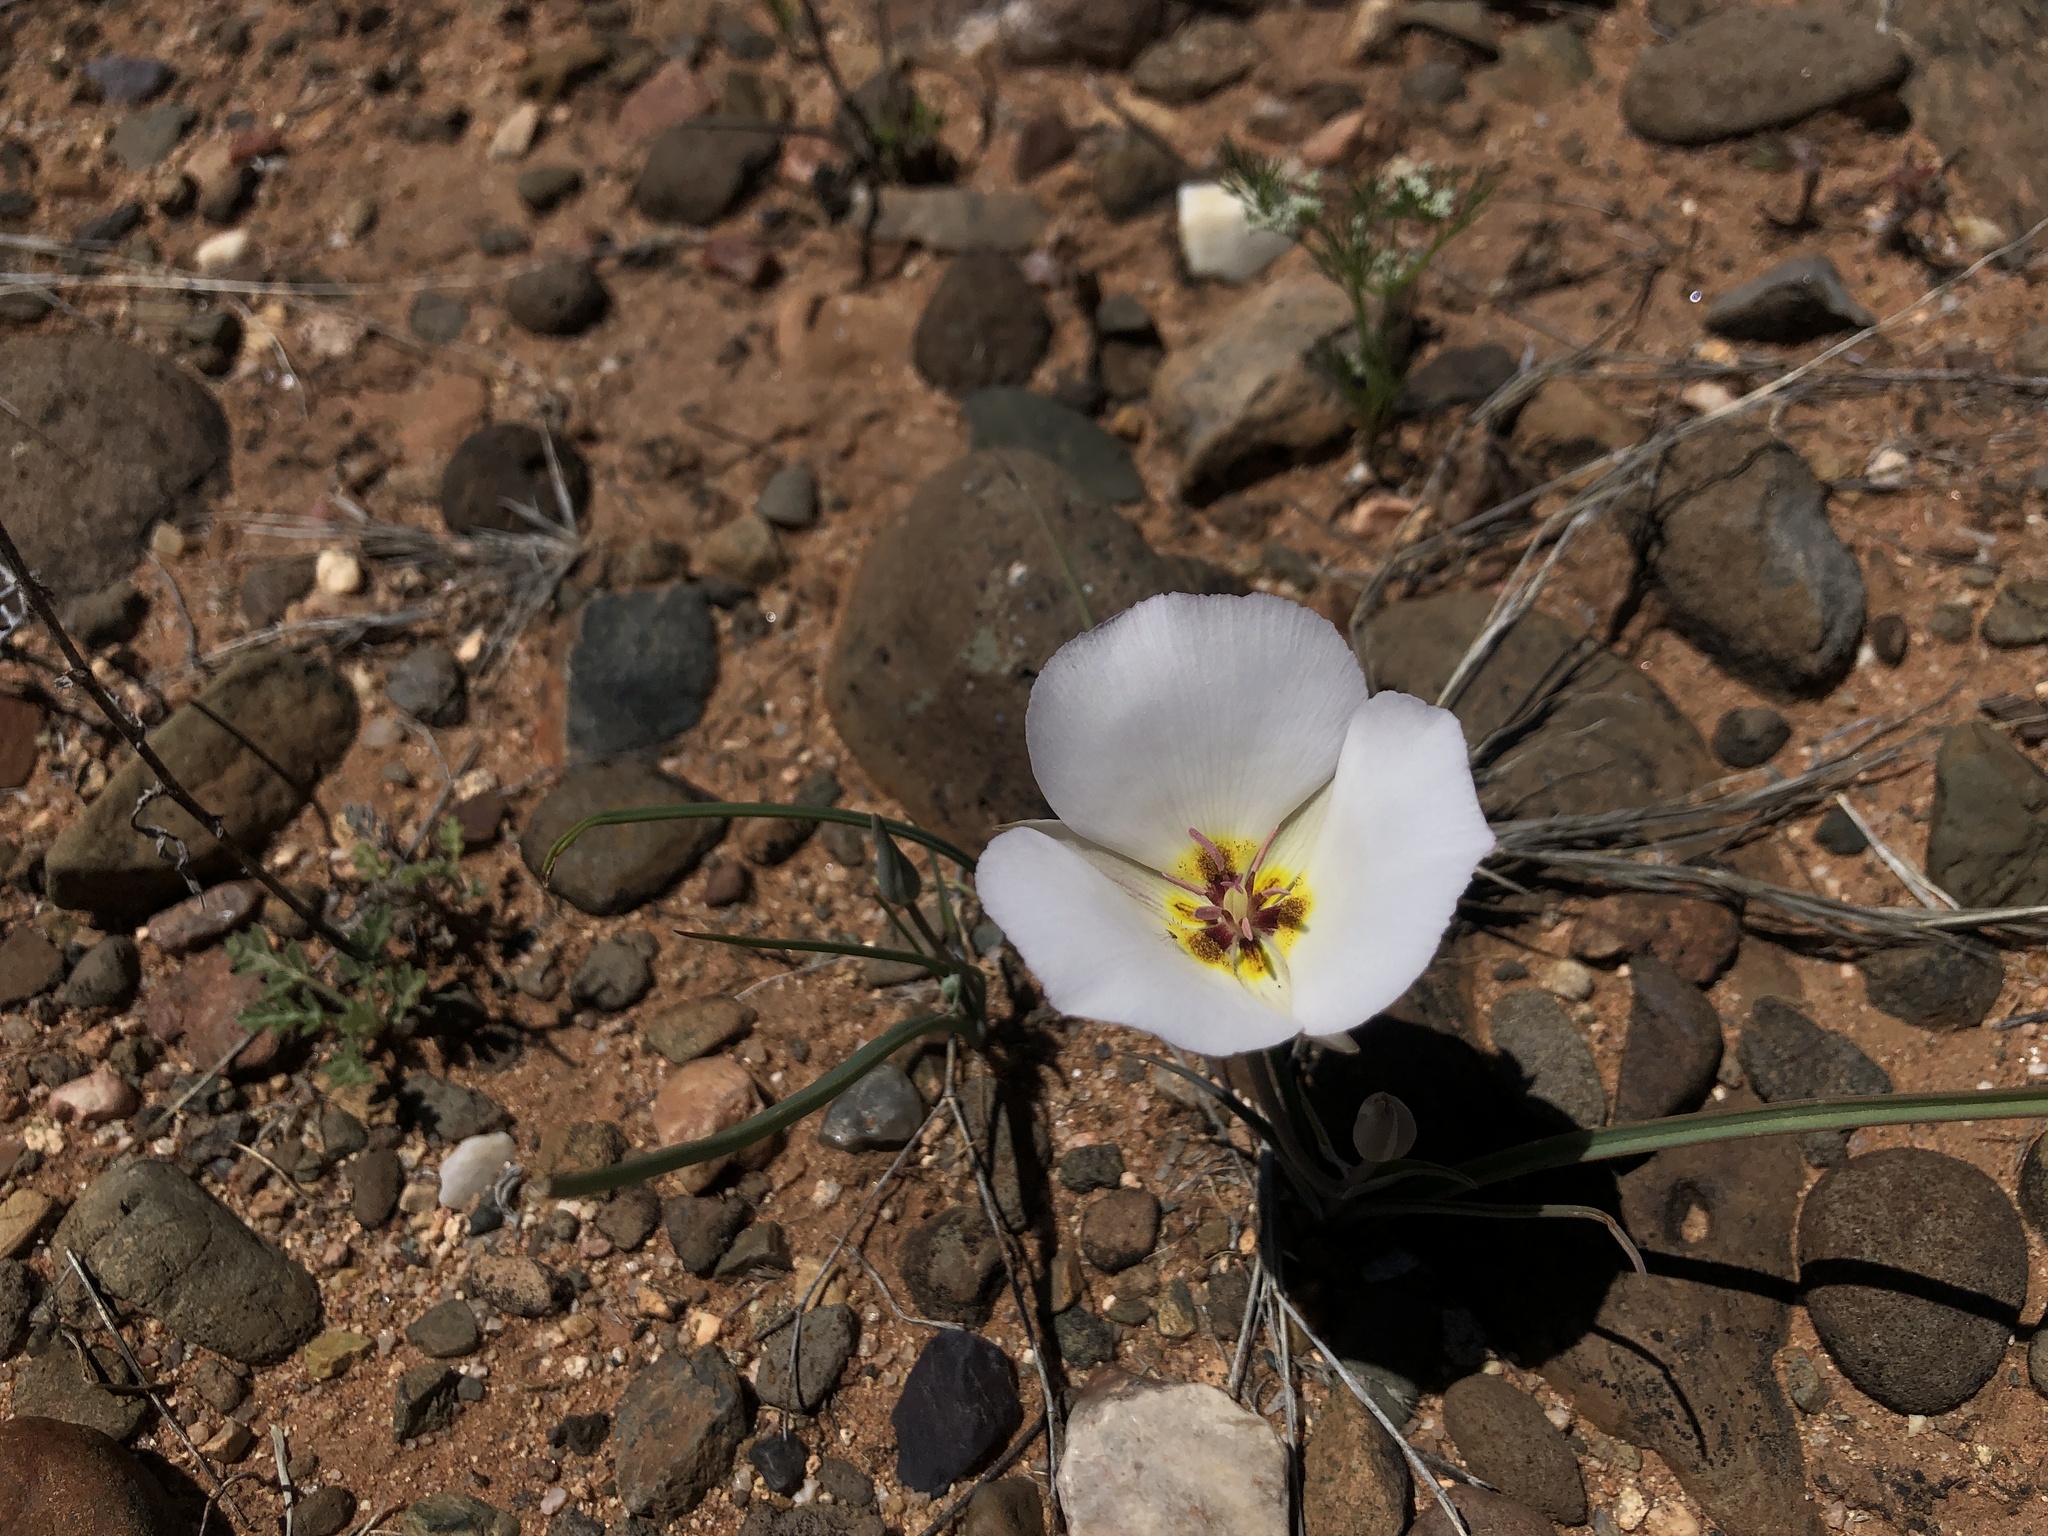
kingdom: Plantae
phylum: Tracheophyta
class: Liliopsida
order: Liliales
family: Liliaceae
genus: Calochortus
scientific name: Calochortus flexuosus
